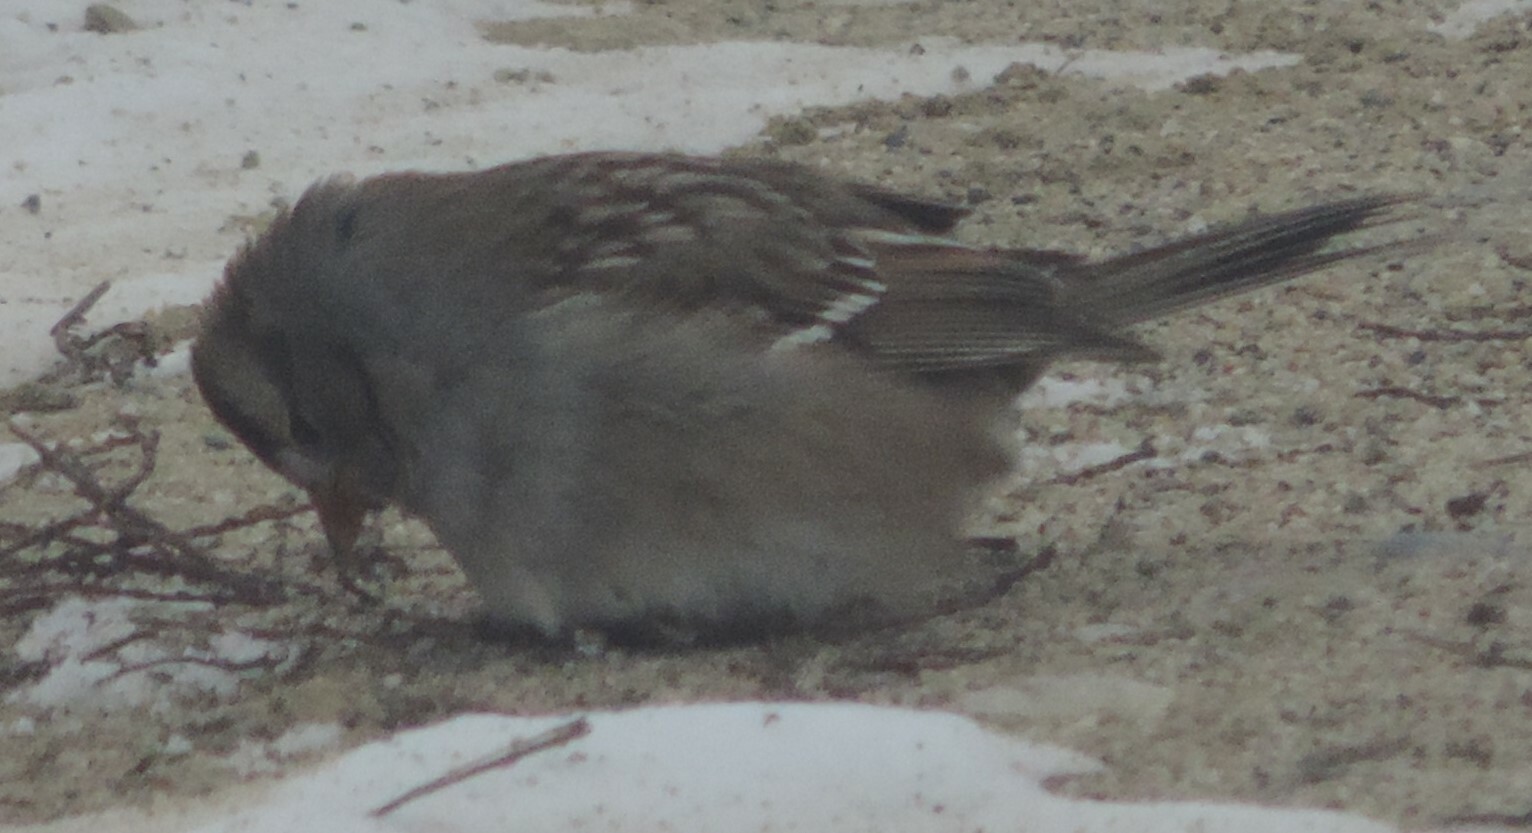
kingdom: Animalia
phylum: Chordata
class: Aves
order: Passeriformes
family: Passerellidae
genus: Zonotrichia
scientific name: Zonotrichia leucophrys
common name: White-crowned sparrow
